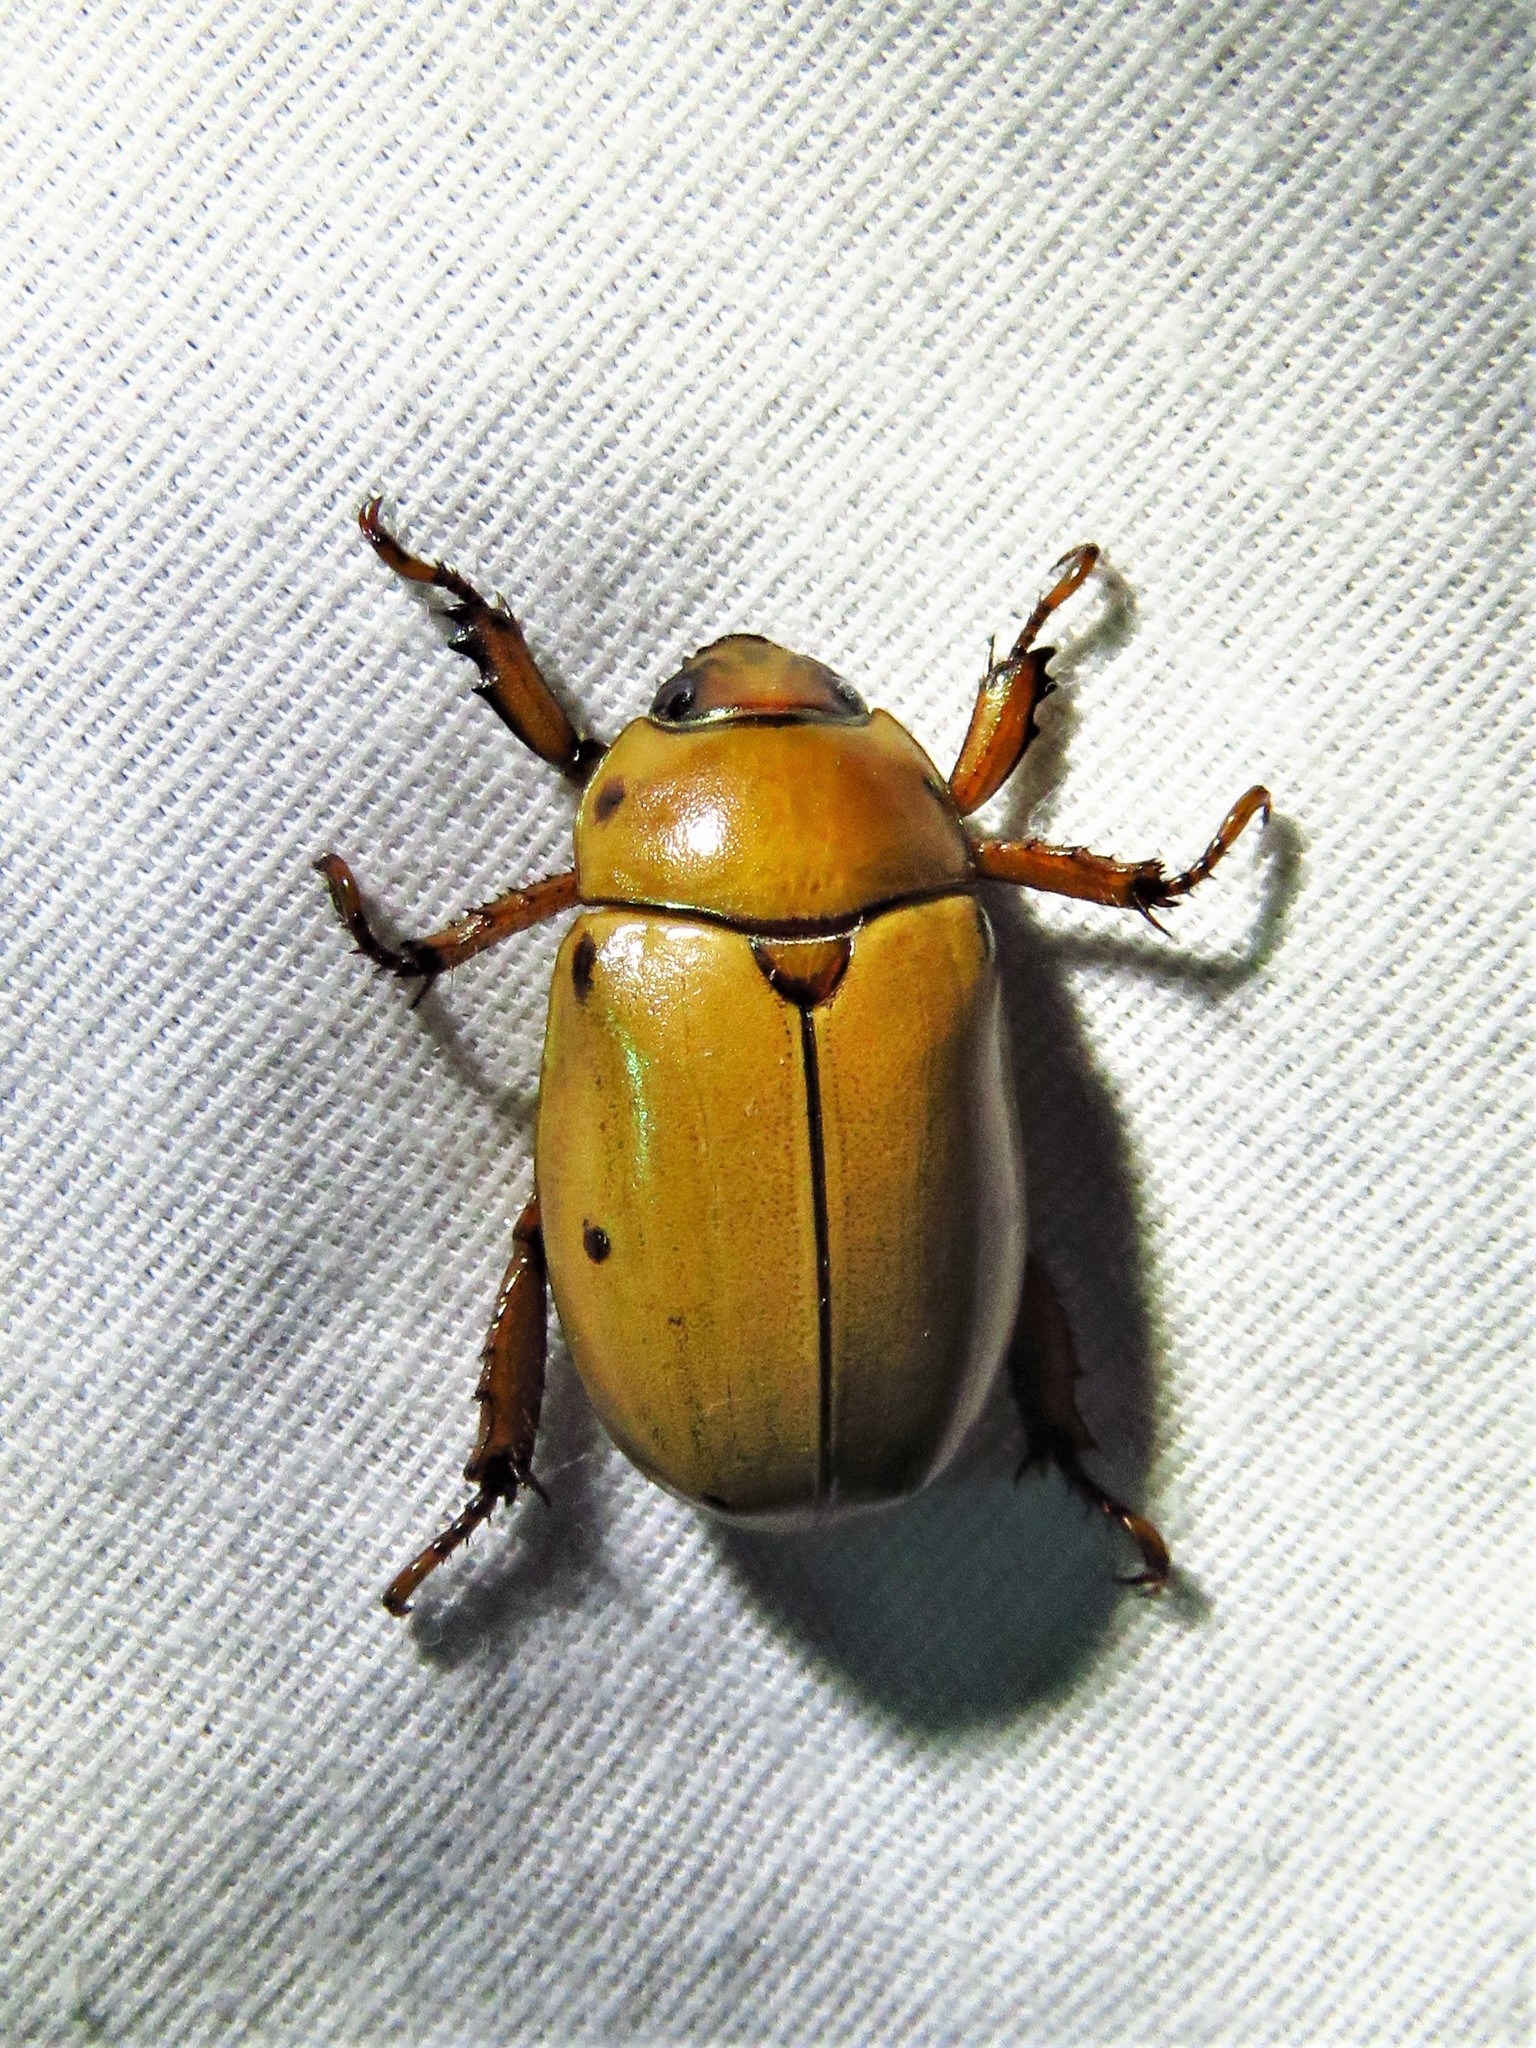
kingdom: Animalia
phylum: Arthropoda
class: Insecta
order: Coleoptera
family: Scarabaeidae
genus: Pelidnota
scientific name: Pelidnota punctata
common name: Grapevine beetle
